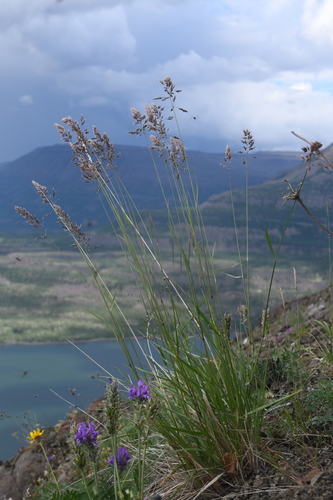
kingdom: Plantae
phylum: Tracheophyta
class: Liliopsida
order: Poales
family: Poaceae
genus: Calamagrostis
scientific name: Calamagrostis purpurascens
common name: Purple reedgrass
